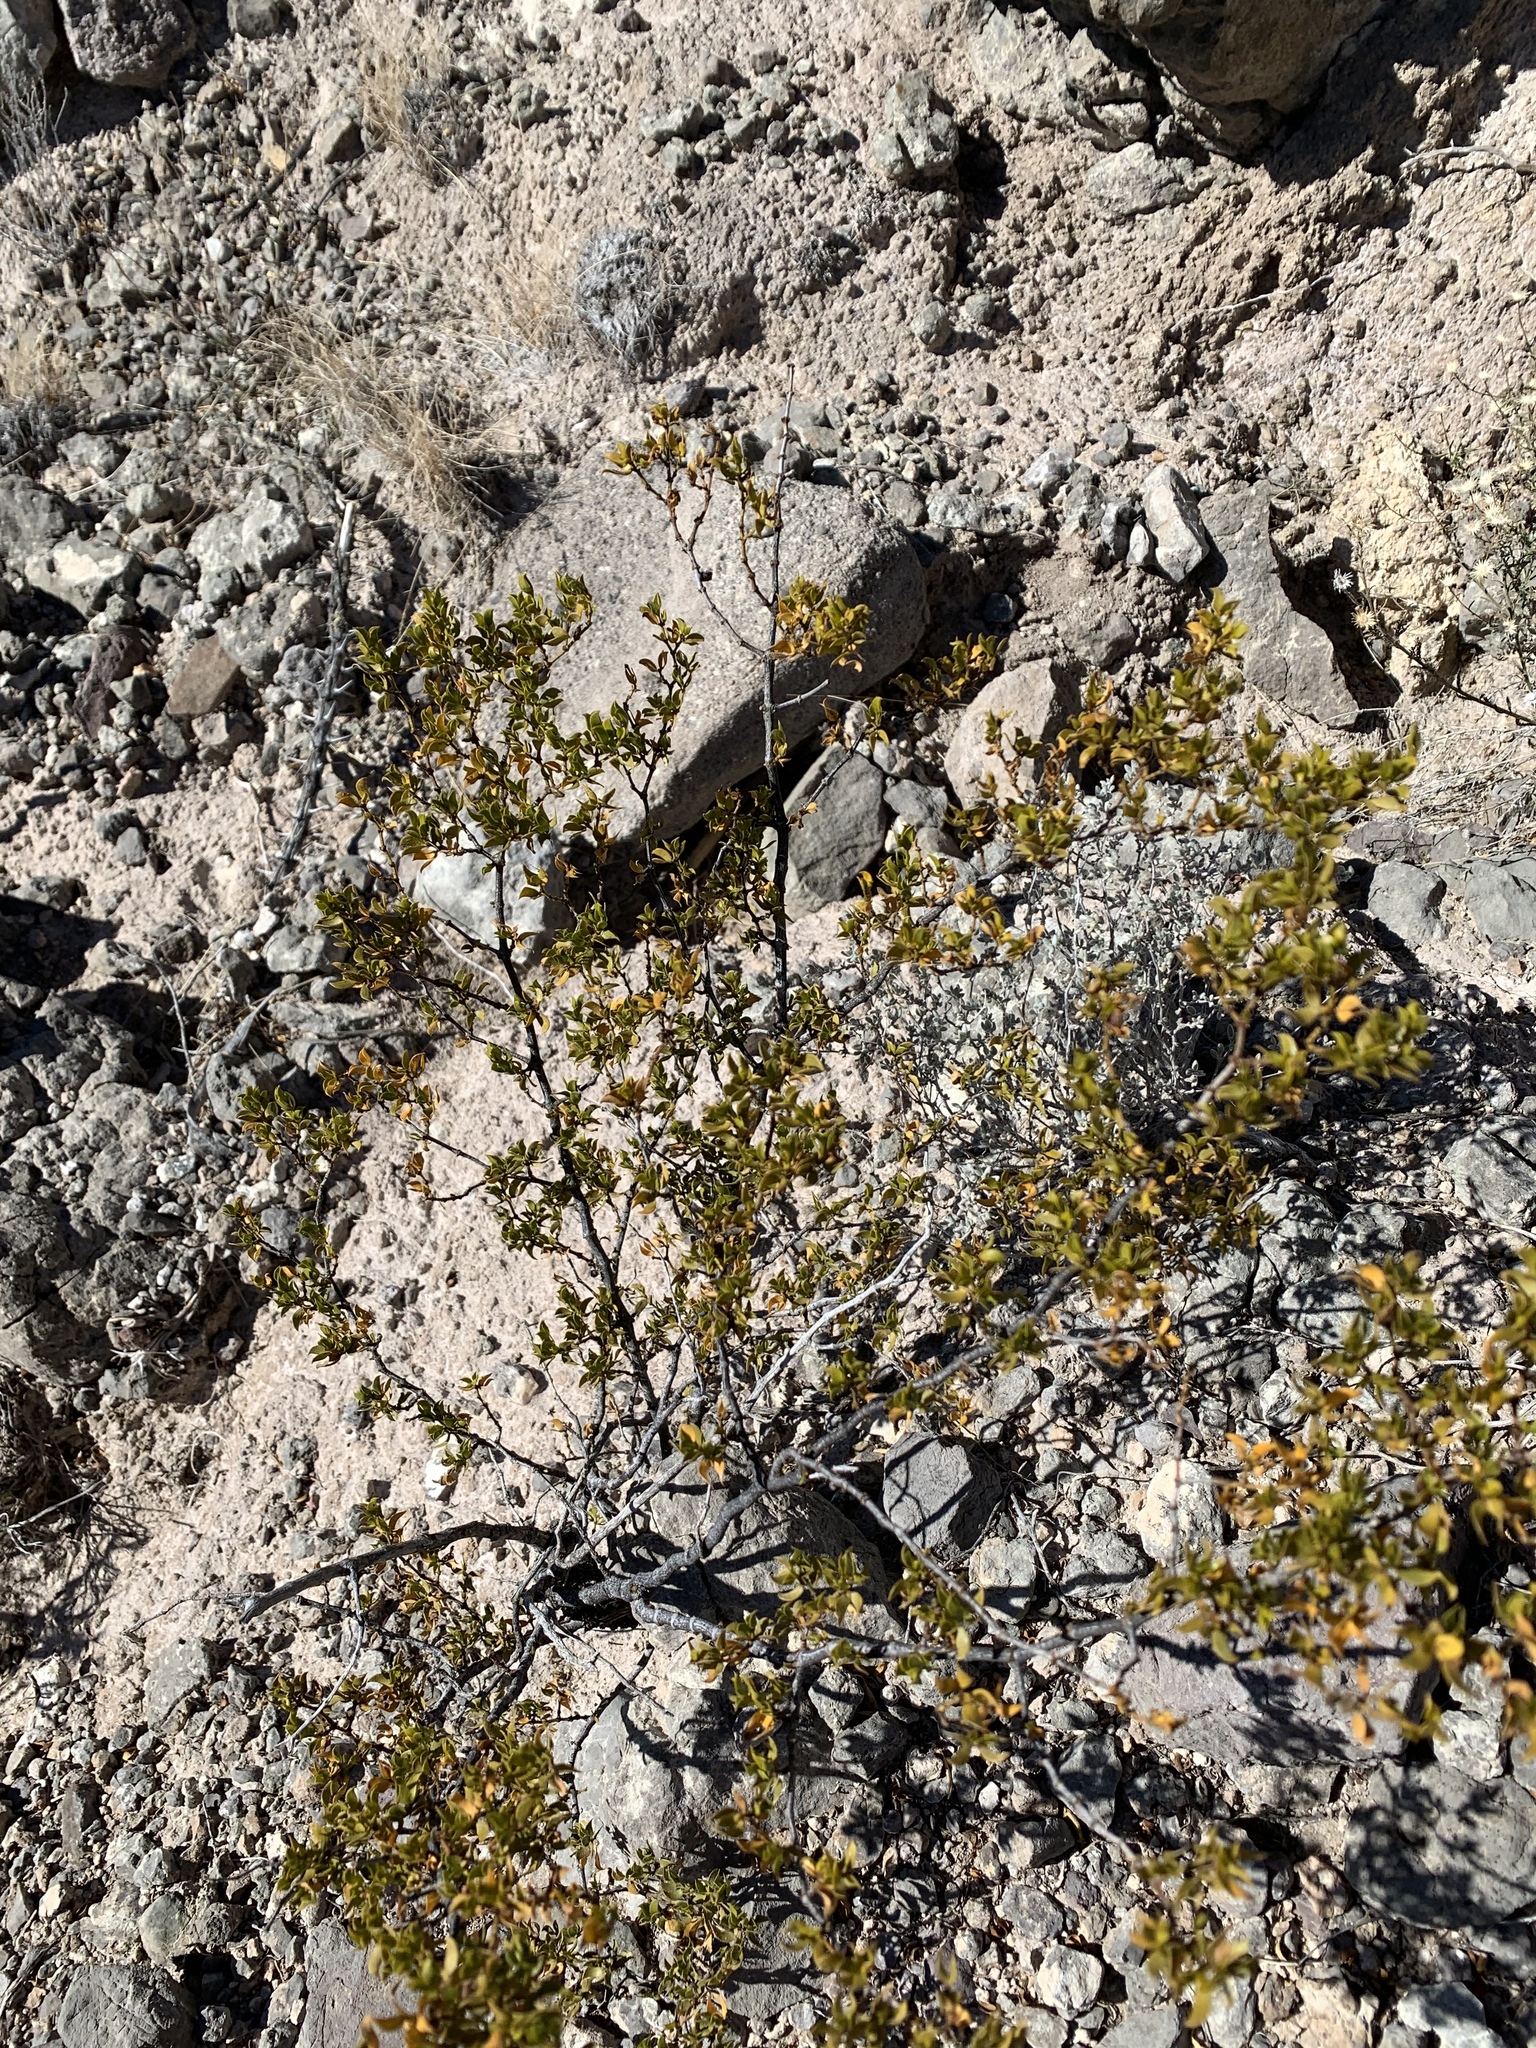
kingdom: Plantae
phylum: Tracheophyta
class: Magnoliopsida
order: Zygophyllales
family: Zygophyllaceae
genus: Larrea
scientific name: Larrea tridentata
